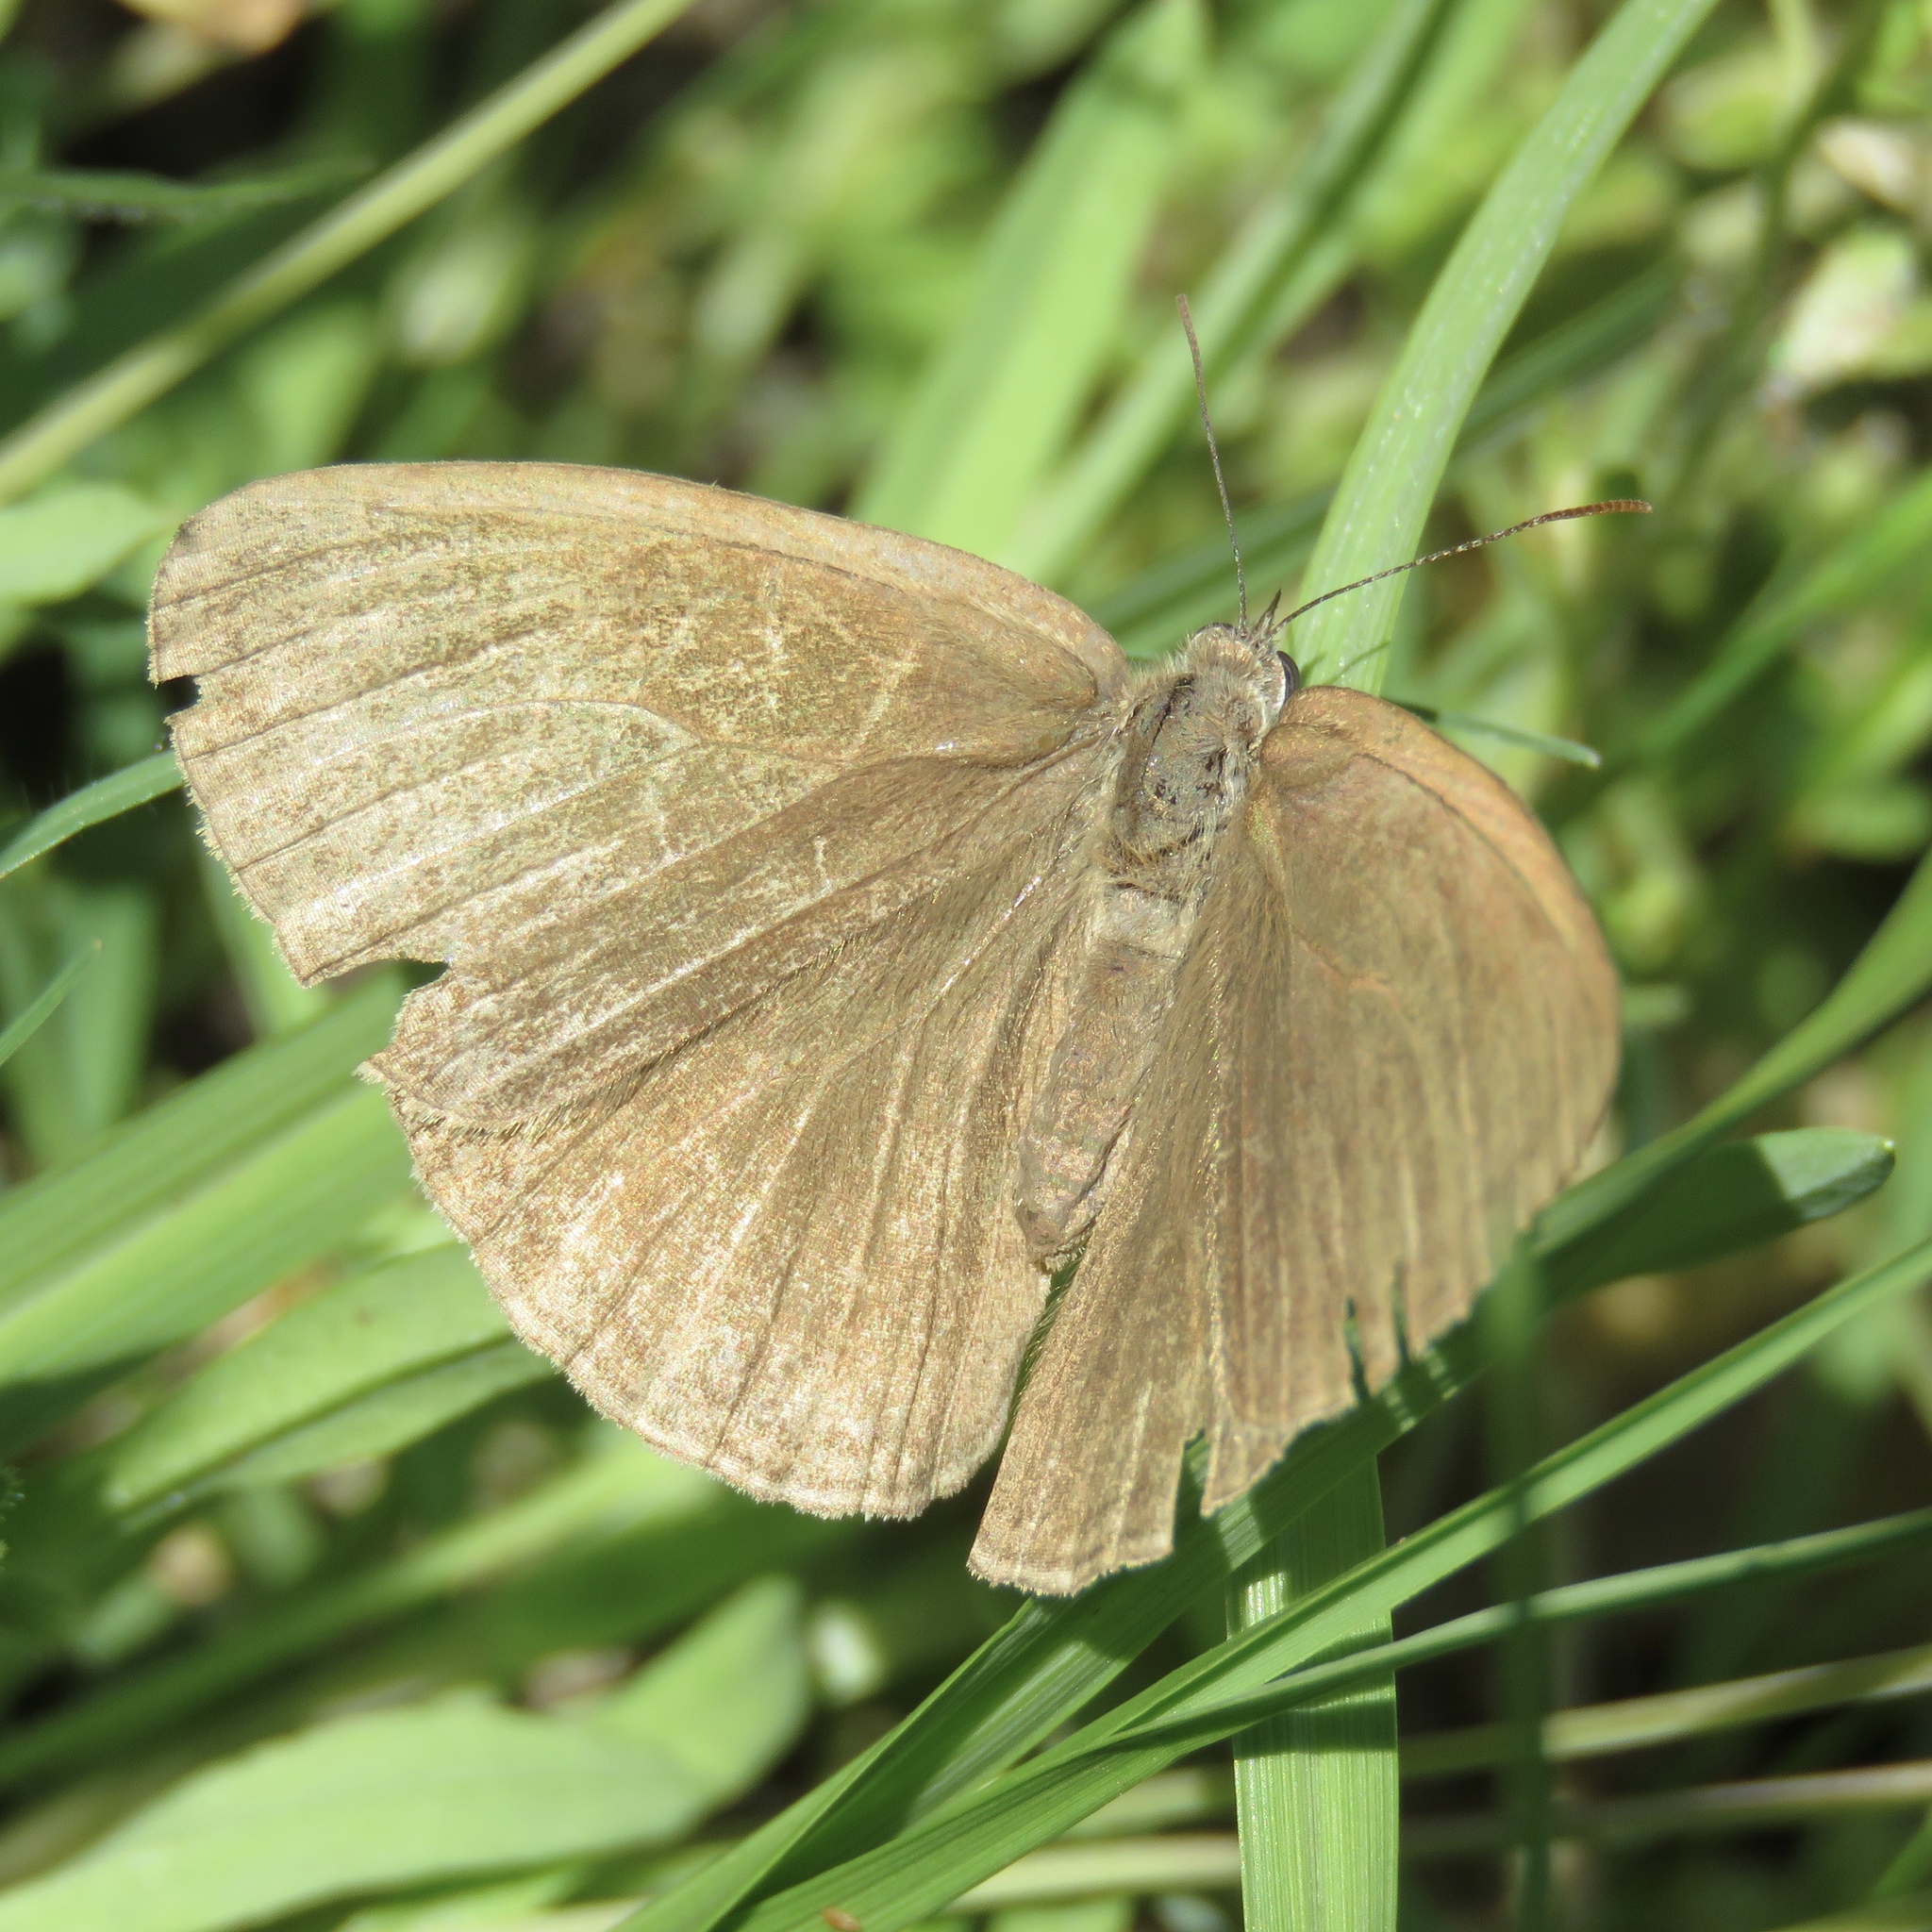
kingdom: Animalia
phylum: Arthropoda
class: Insecta
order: Lepidoptera
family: Nymphalidae
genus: Hermeuptychia
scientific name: Hermeuptychia hermes
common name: Hermes satyr
